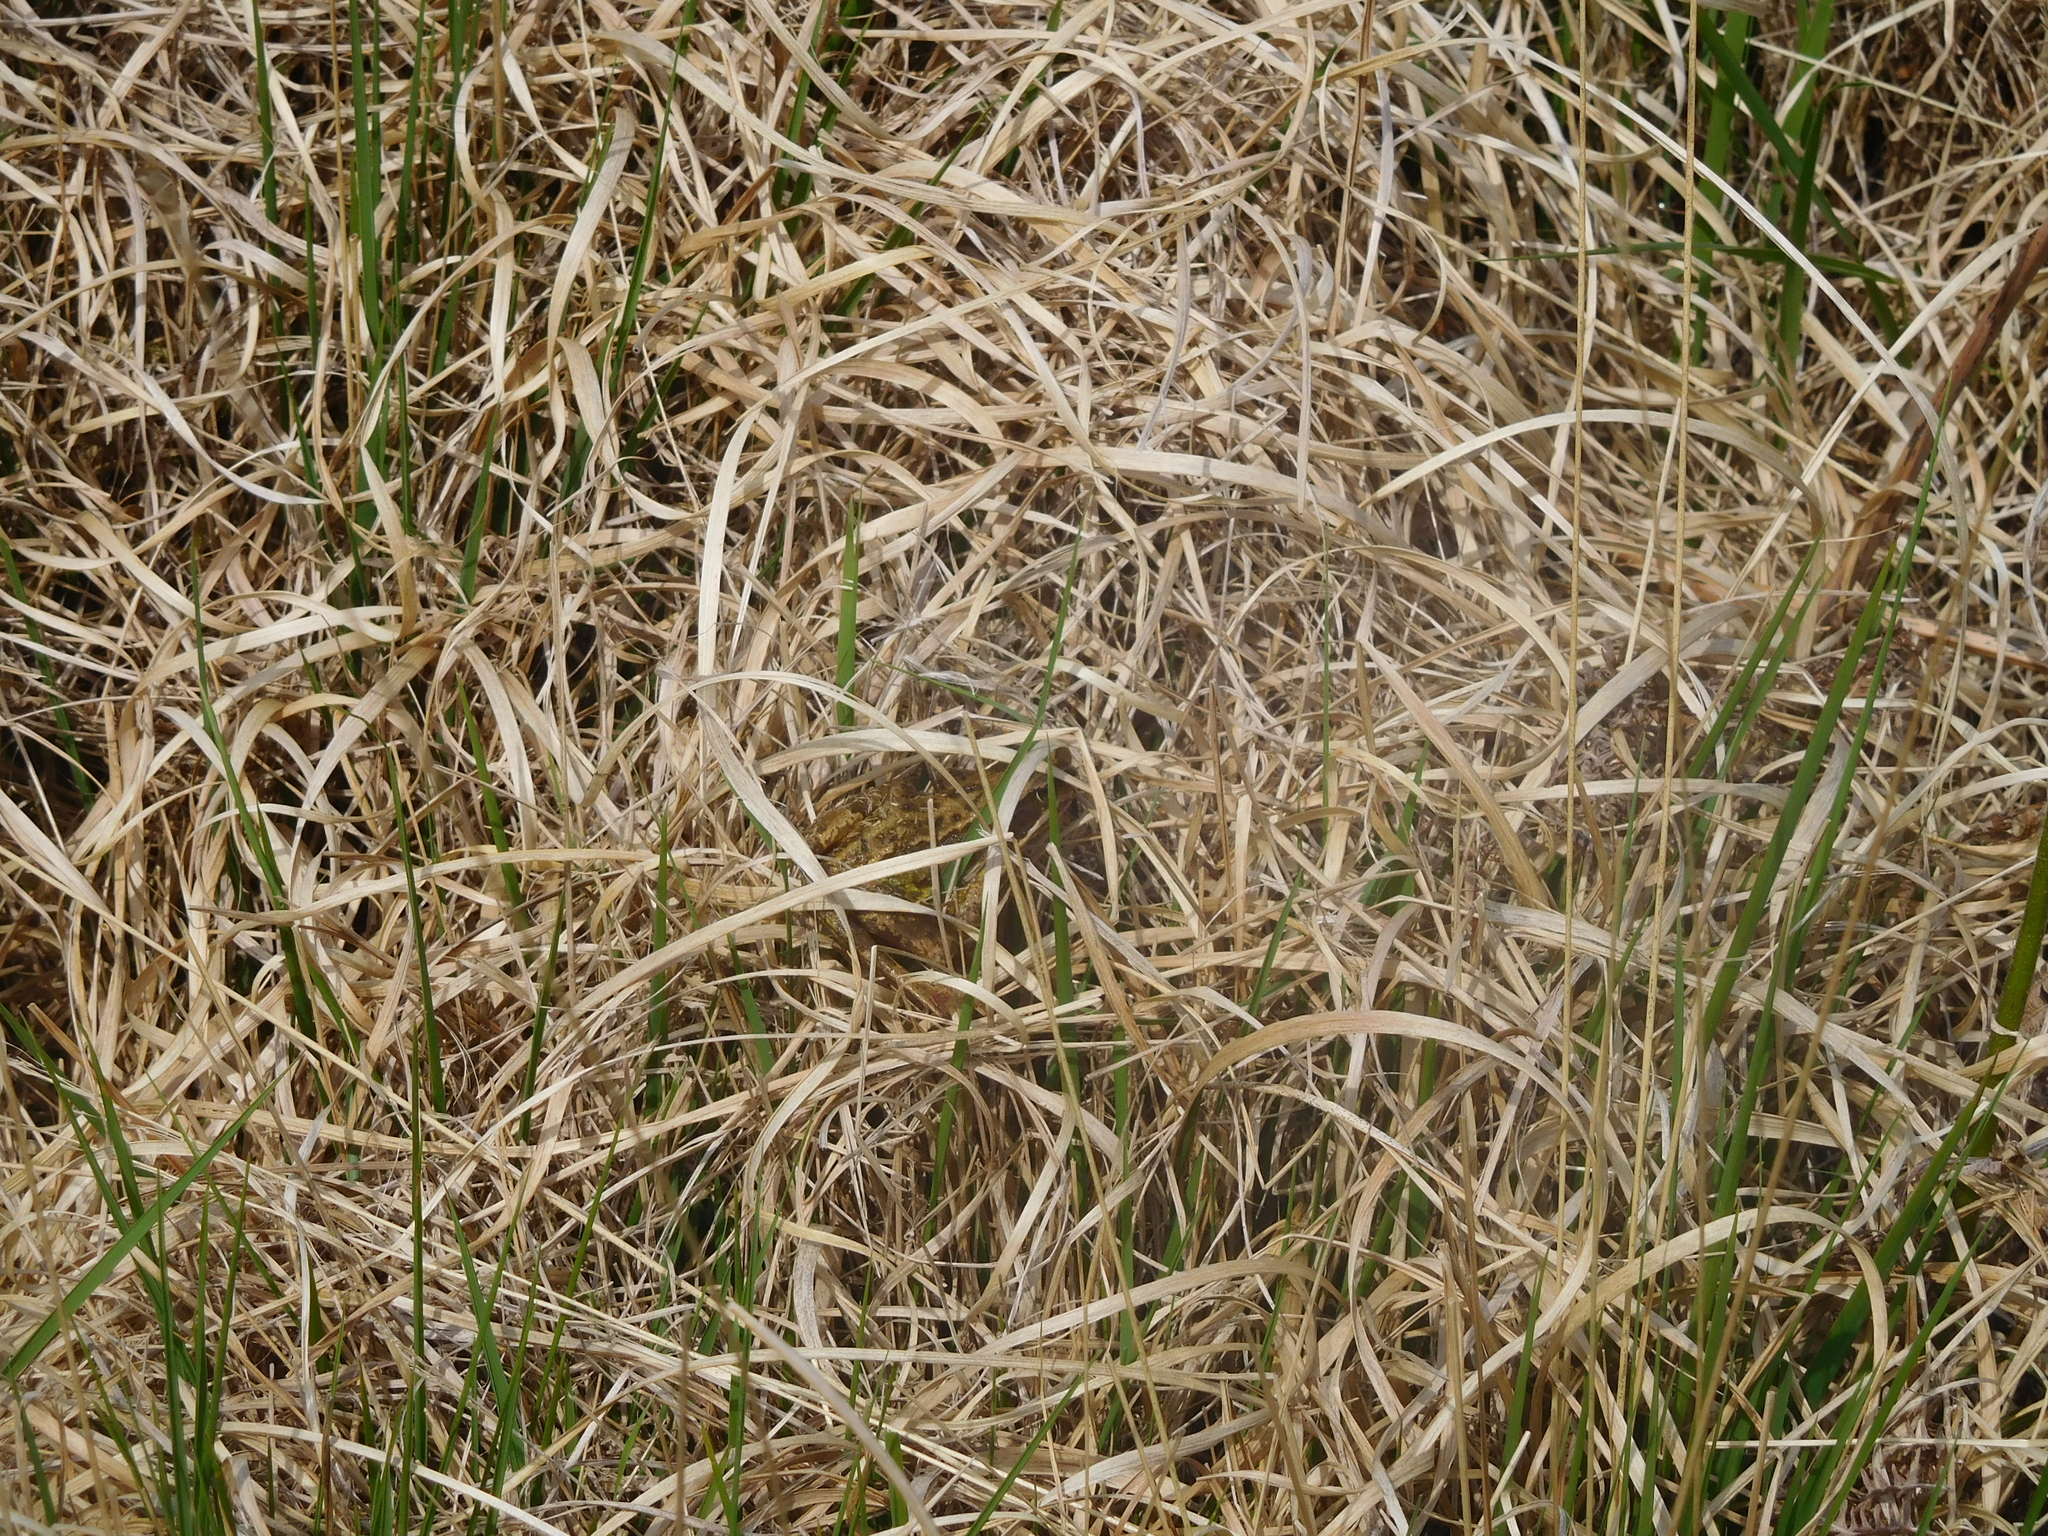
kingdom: Animalia
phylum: Chordata
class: Amphibia
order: Anura
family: Ranidae
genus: Rana
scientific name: Rana temporaria
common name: Common frog
